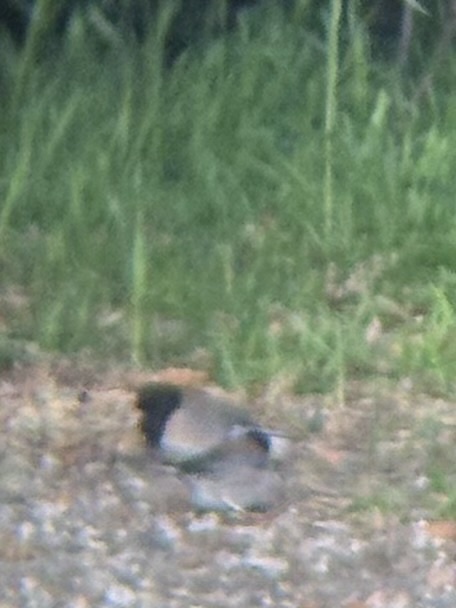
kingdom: Animalia
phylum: Chordata
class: Aves
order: Passeriformes
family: Passerellidae
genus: Junco
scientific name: Junco hyemalis
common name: Dark-eyed junco
